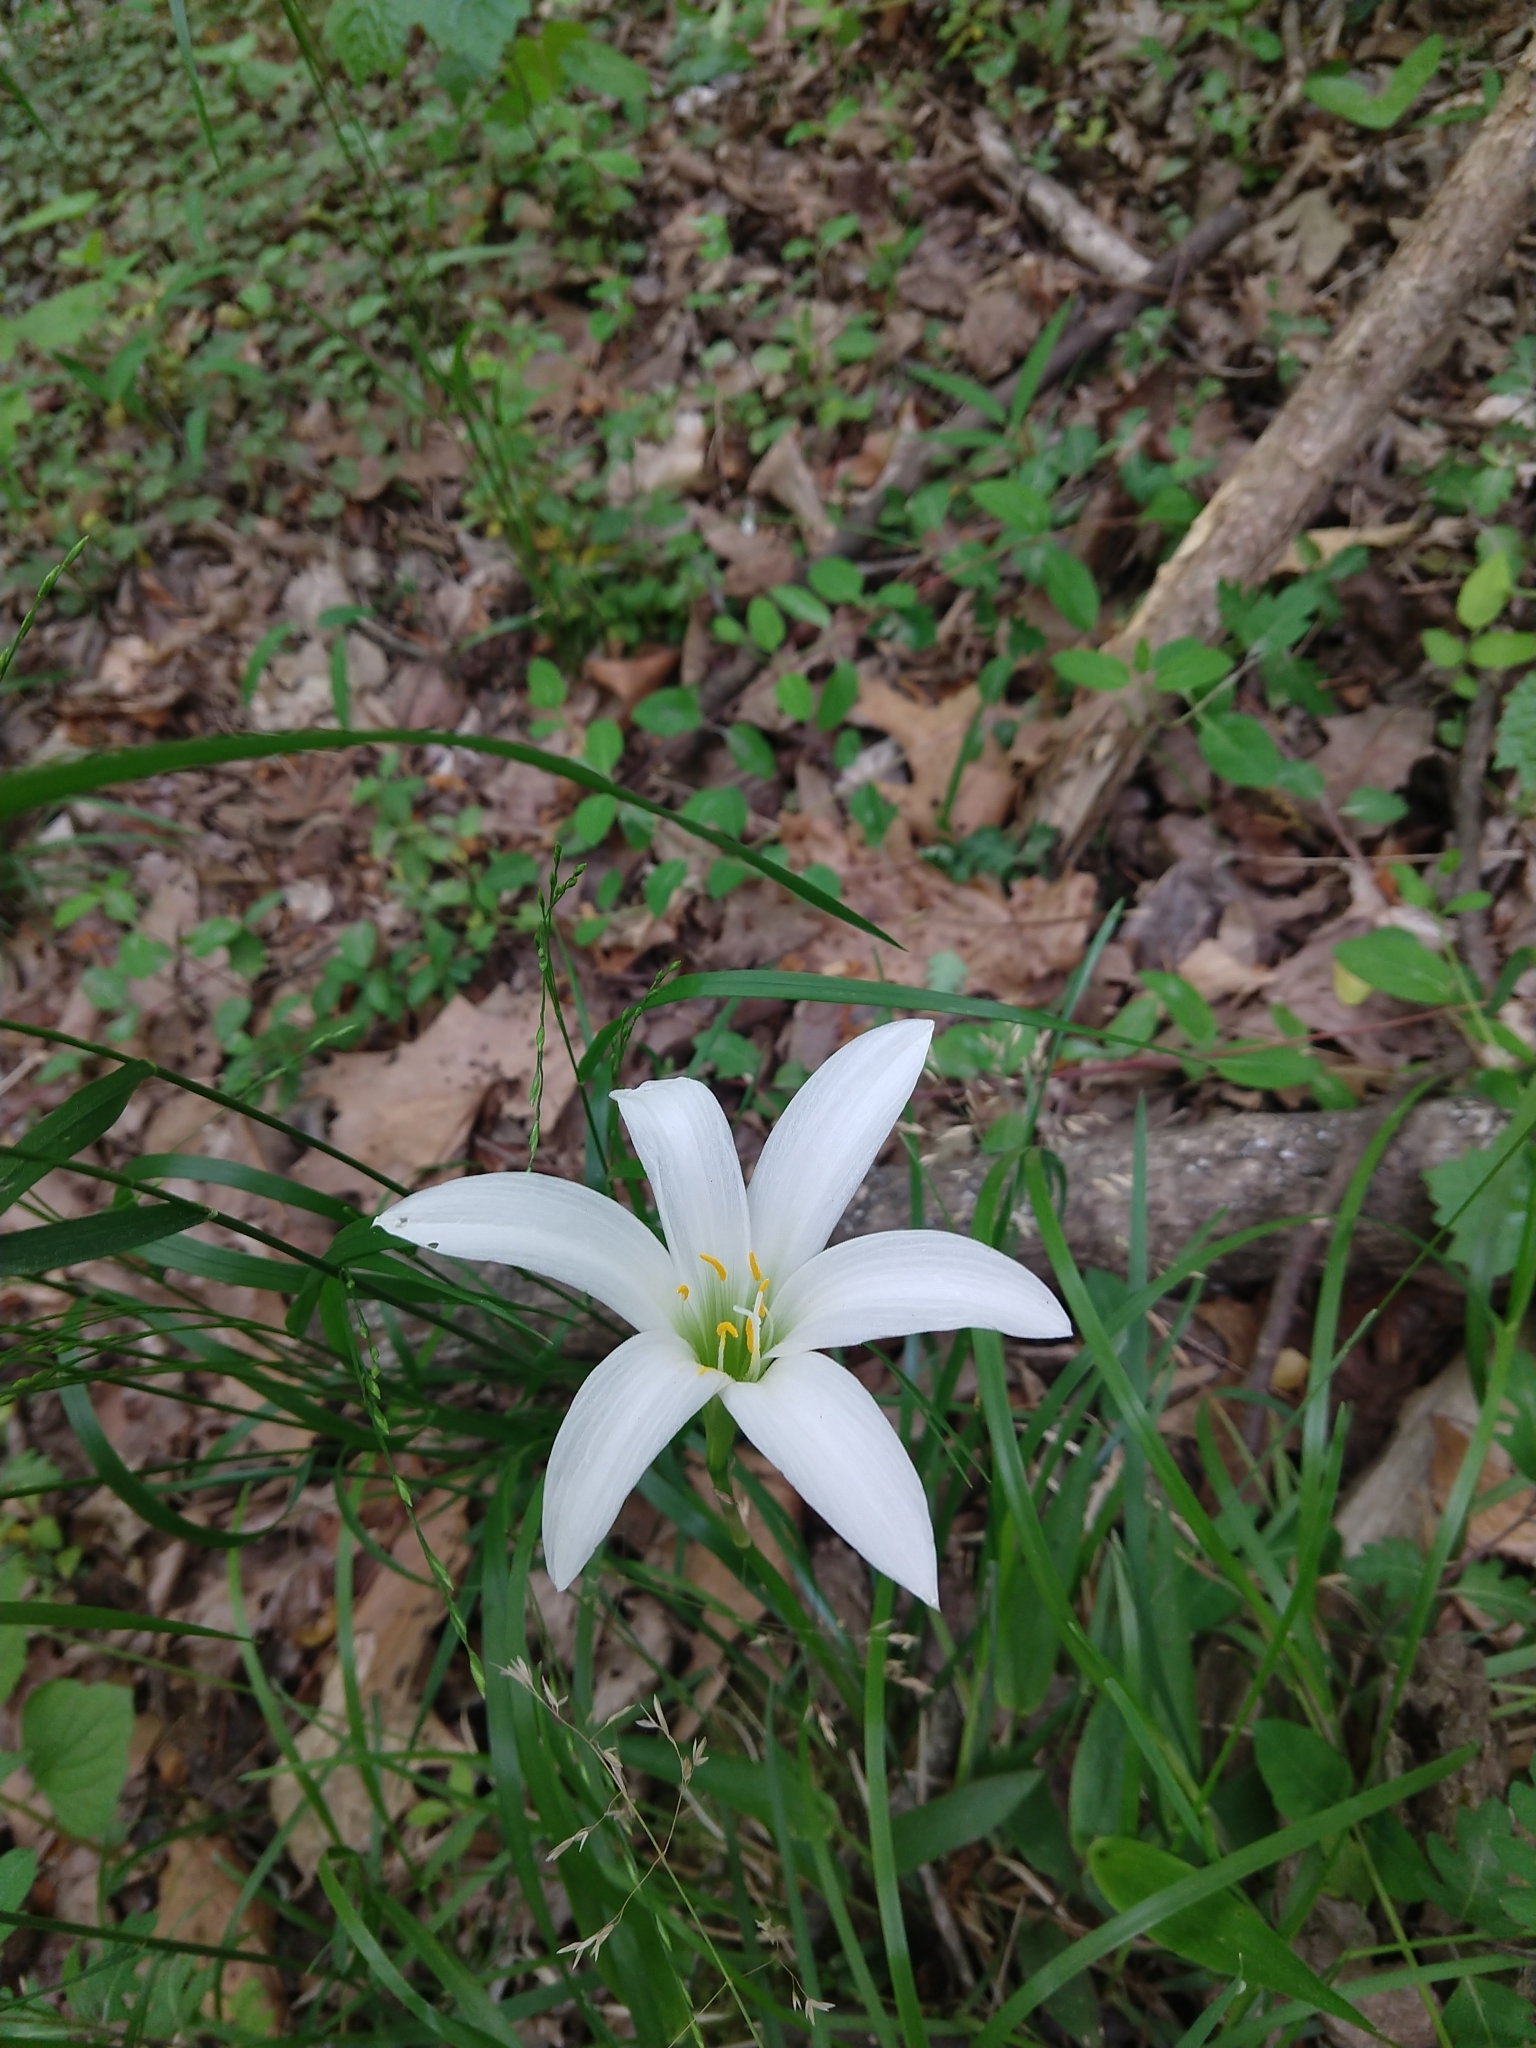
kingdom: Plantae
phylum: Tracheophyta
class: Liliopsida
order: Asparagales
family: Amaryllidaceae
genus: Zephyranthes
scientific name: Zephyranthes atamasco
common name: Atamasco lily
